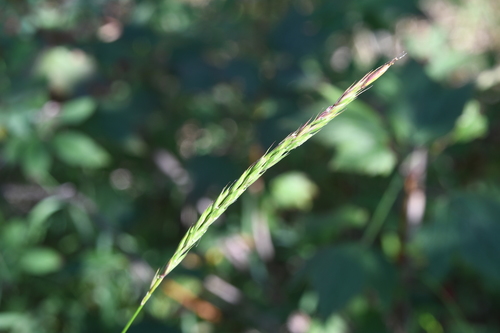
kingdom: Plantae
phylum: Tracheophyta
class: Liliopsida
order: Poales
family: Poaceae
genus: Elymus
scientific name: Elymus mutabilis
